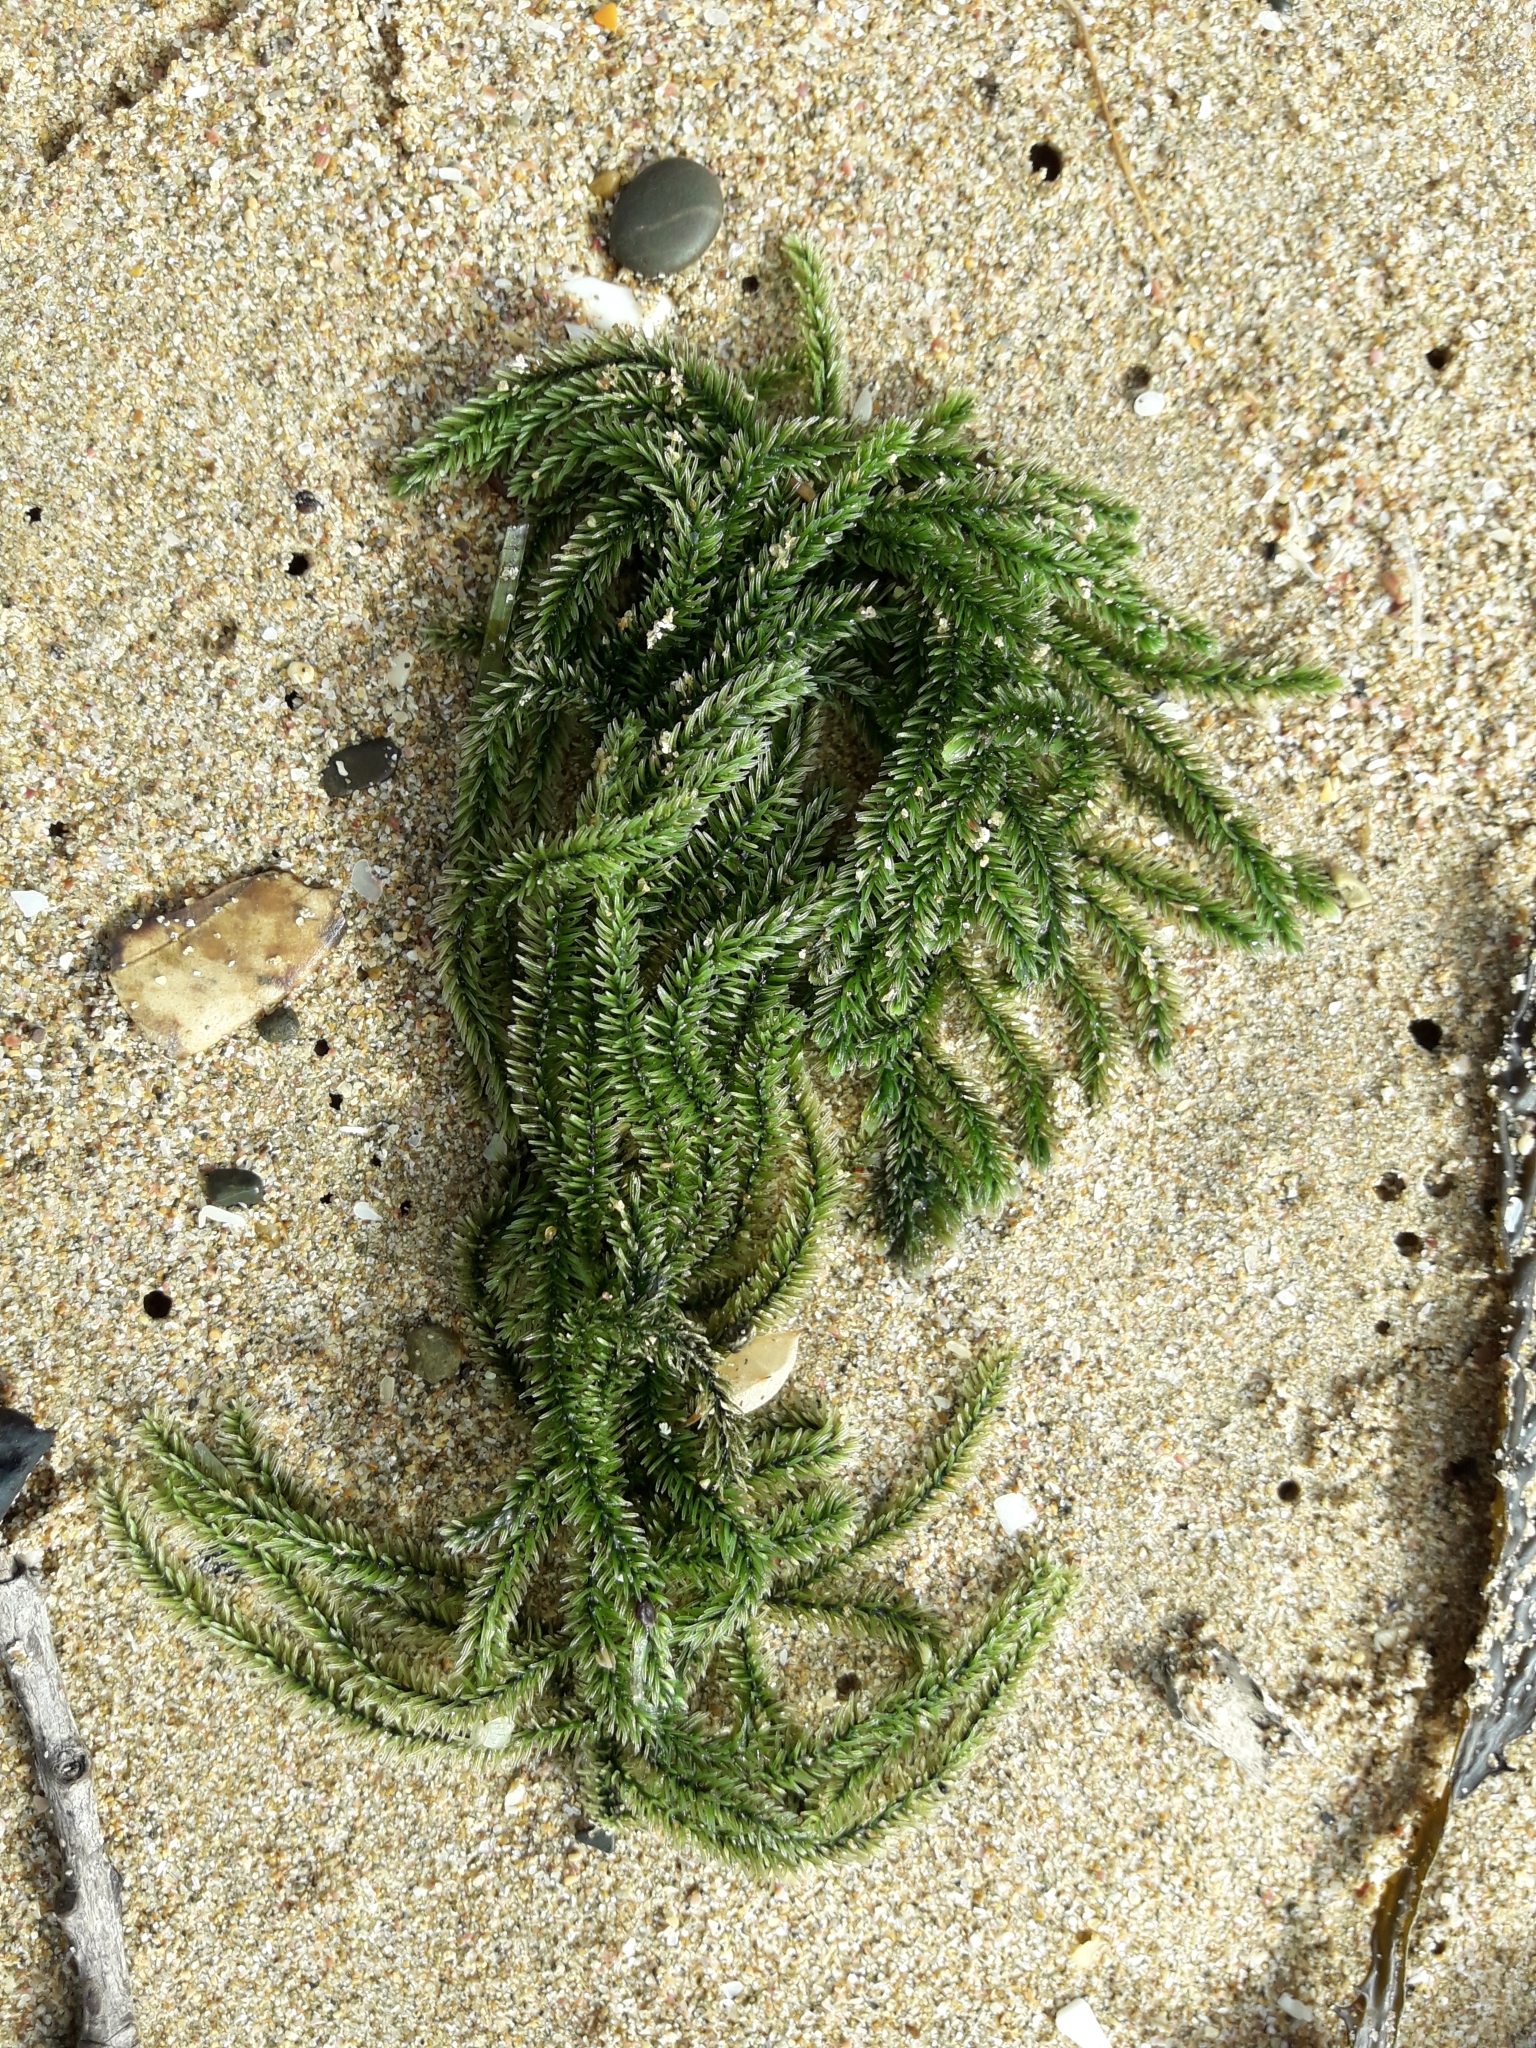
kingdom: Plantae
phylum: Chlorophyta
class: Ulvophyceae
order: Bryopsidales
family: Caulerpaceae
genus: Caulerpa
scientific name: Caulerpa flexilis
